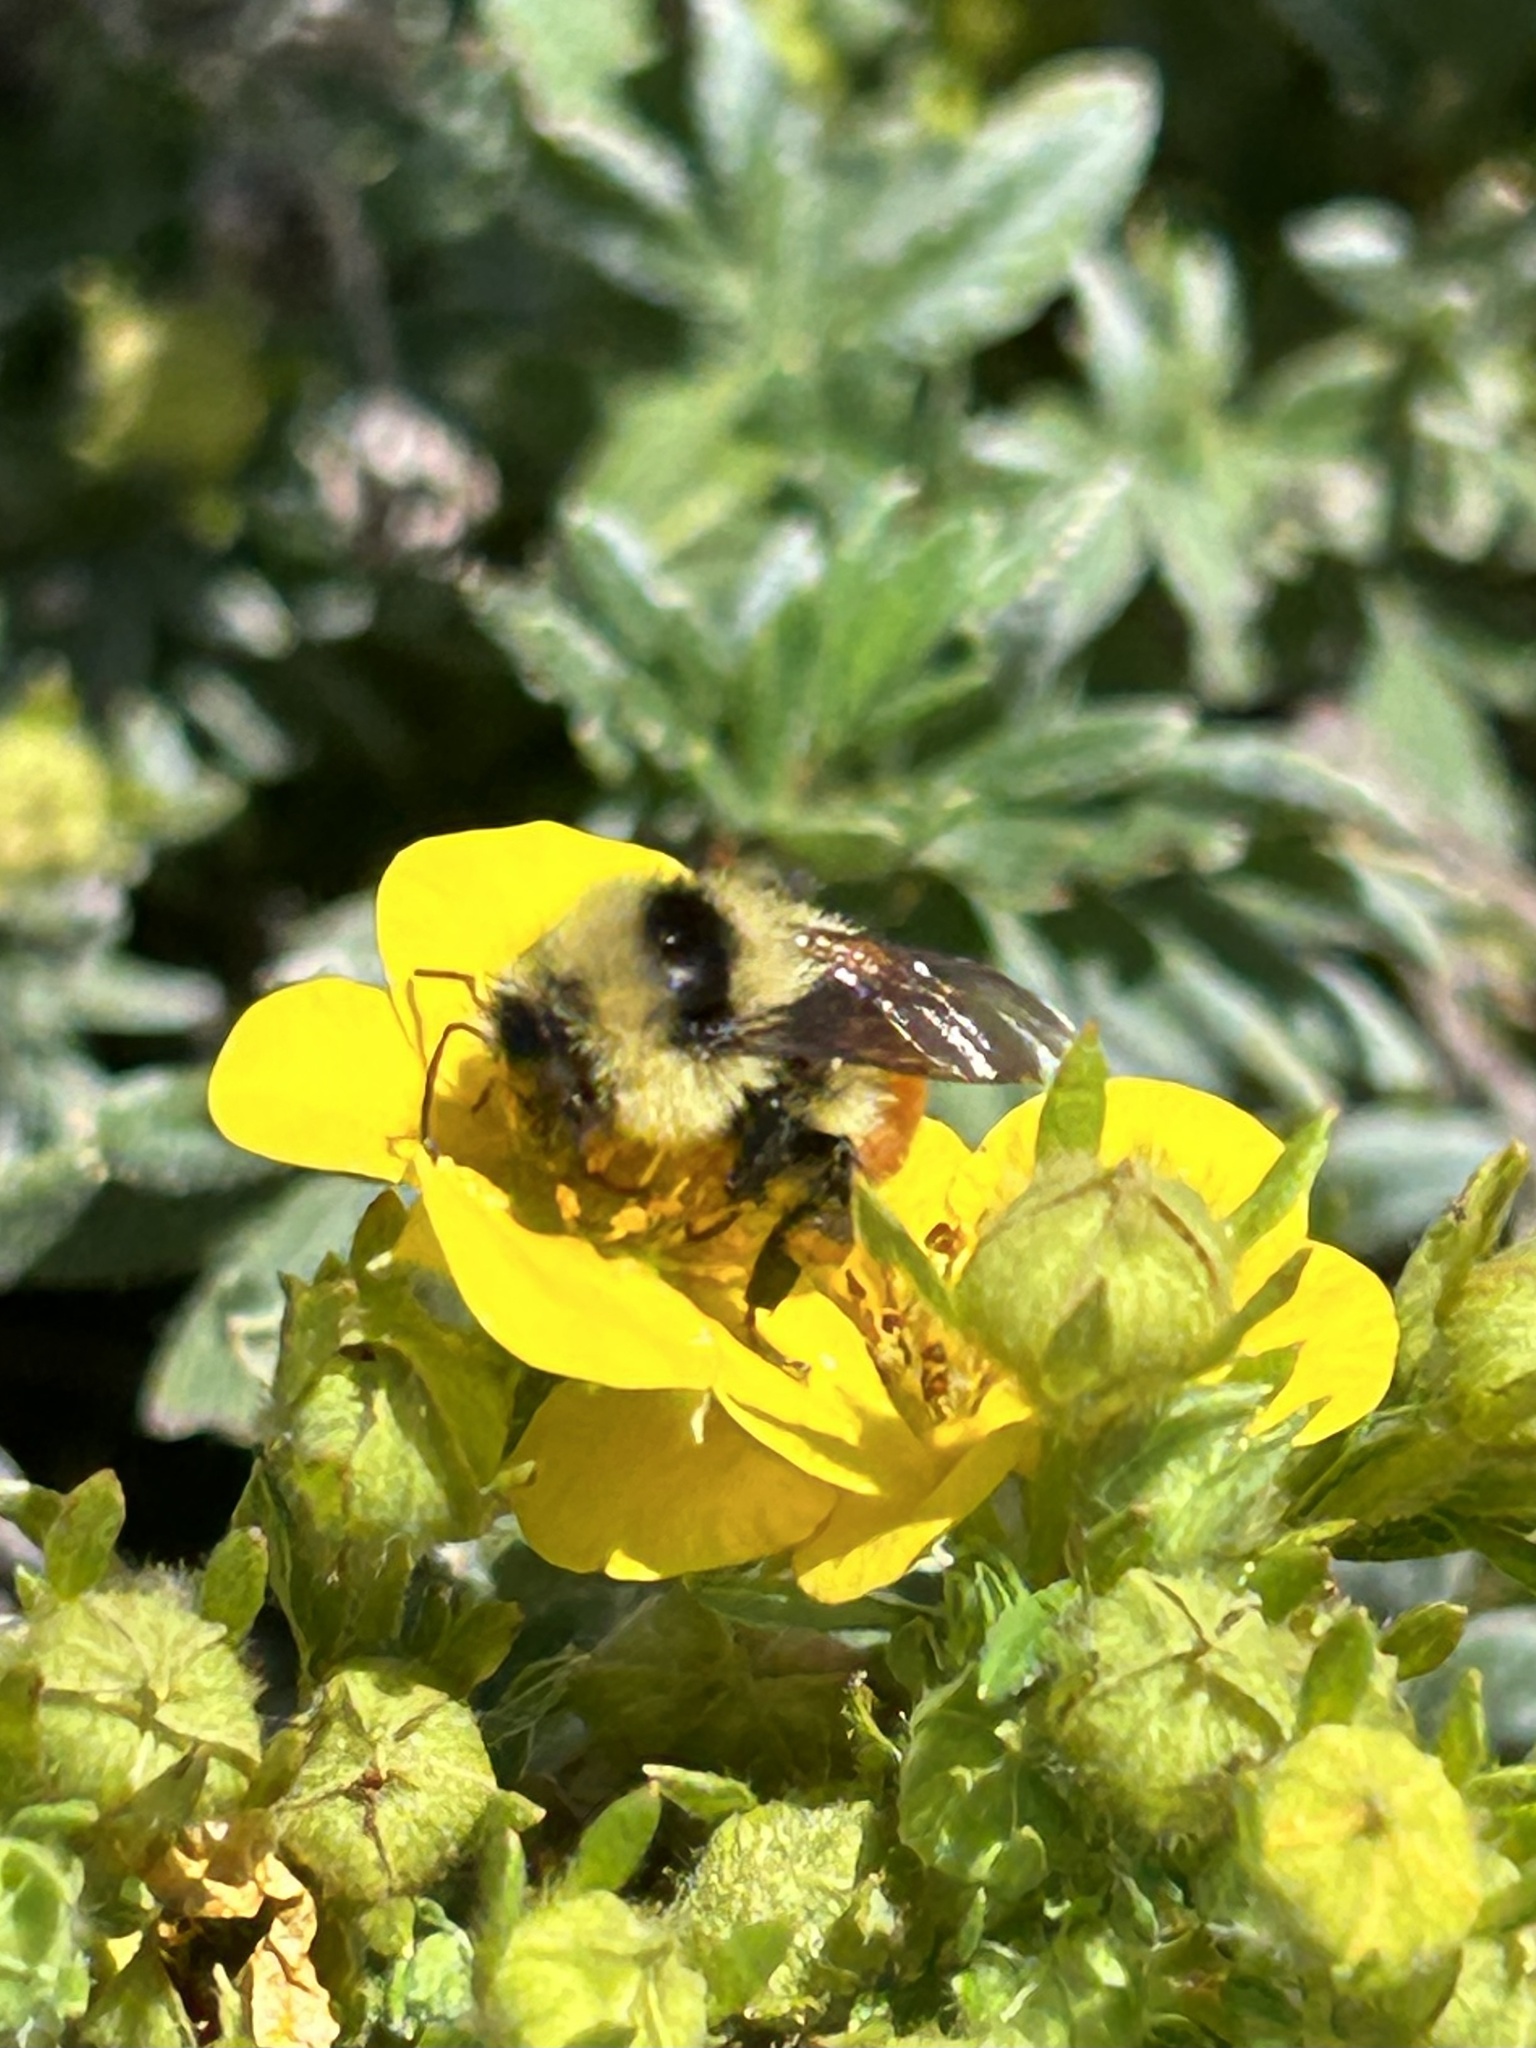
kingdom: Animalia
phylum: Arthropoda
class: Insecta
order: Hymenoptera
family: Apidae
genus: Bombus
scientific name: Bombus huntii
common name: Hunt bumble bee
